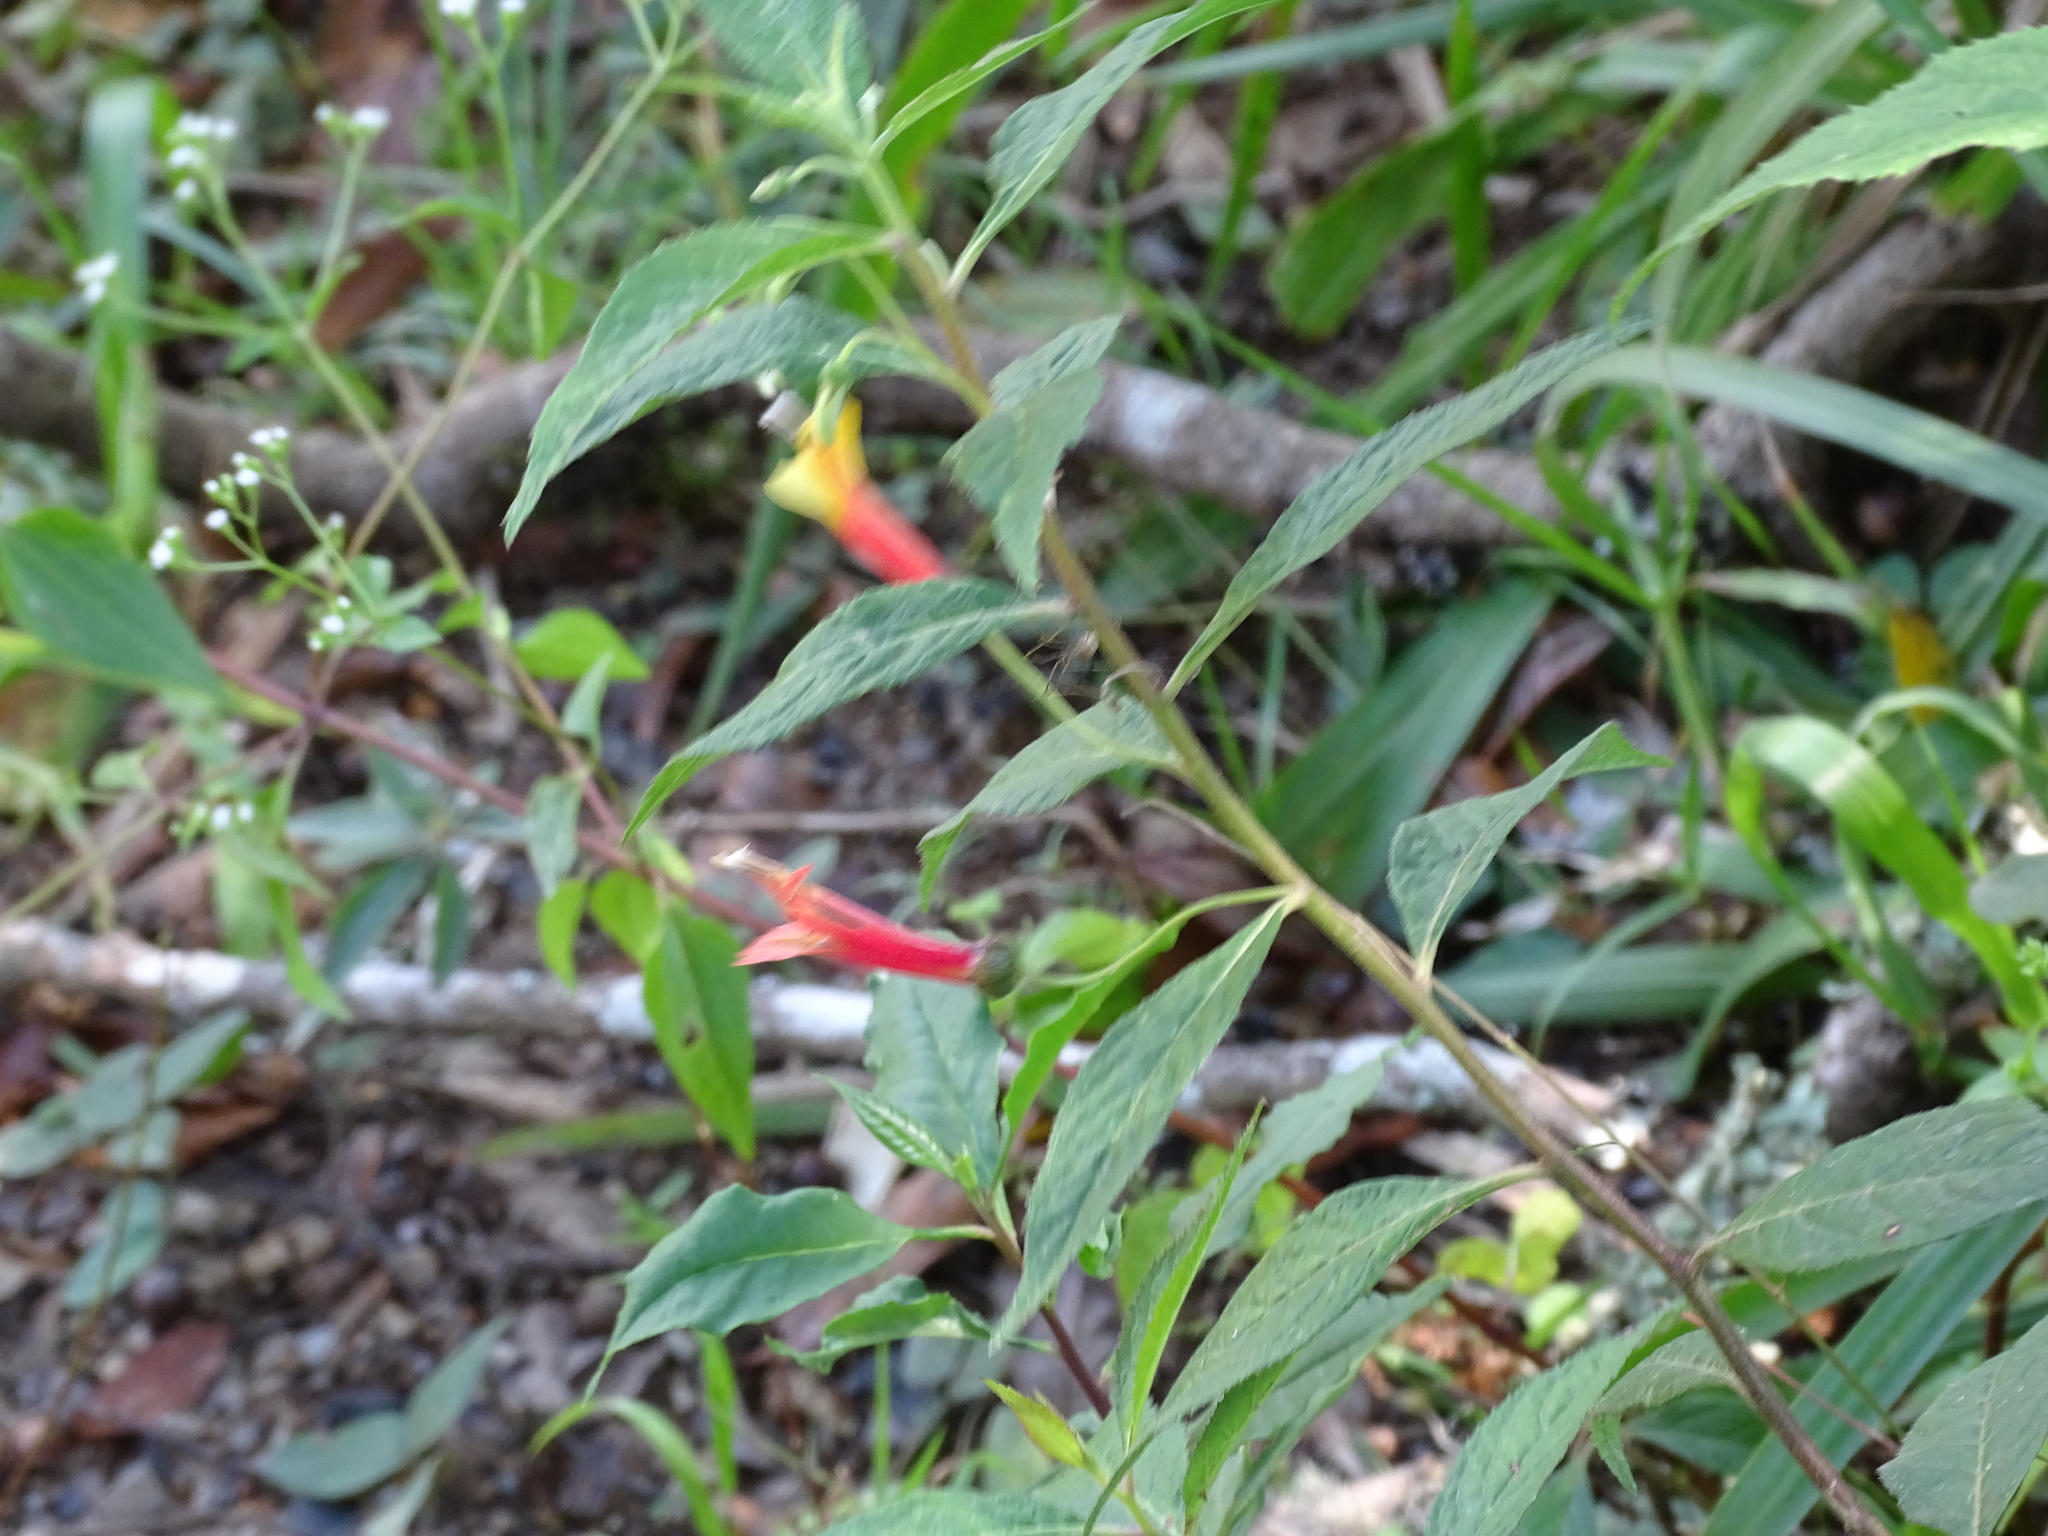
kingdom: Plantae
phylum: Tracheophyta
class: Magnoliopsida
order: Asterales
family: Campanulaceae
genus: Lobelia
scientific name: Lobelia laxiflora
